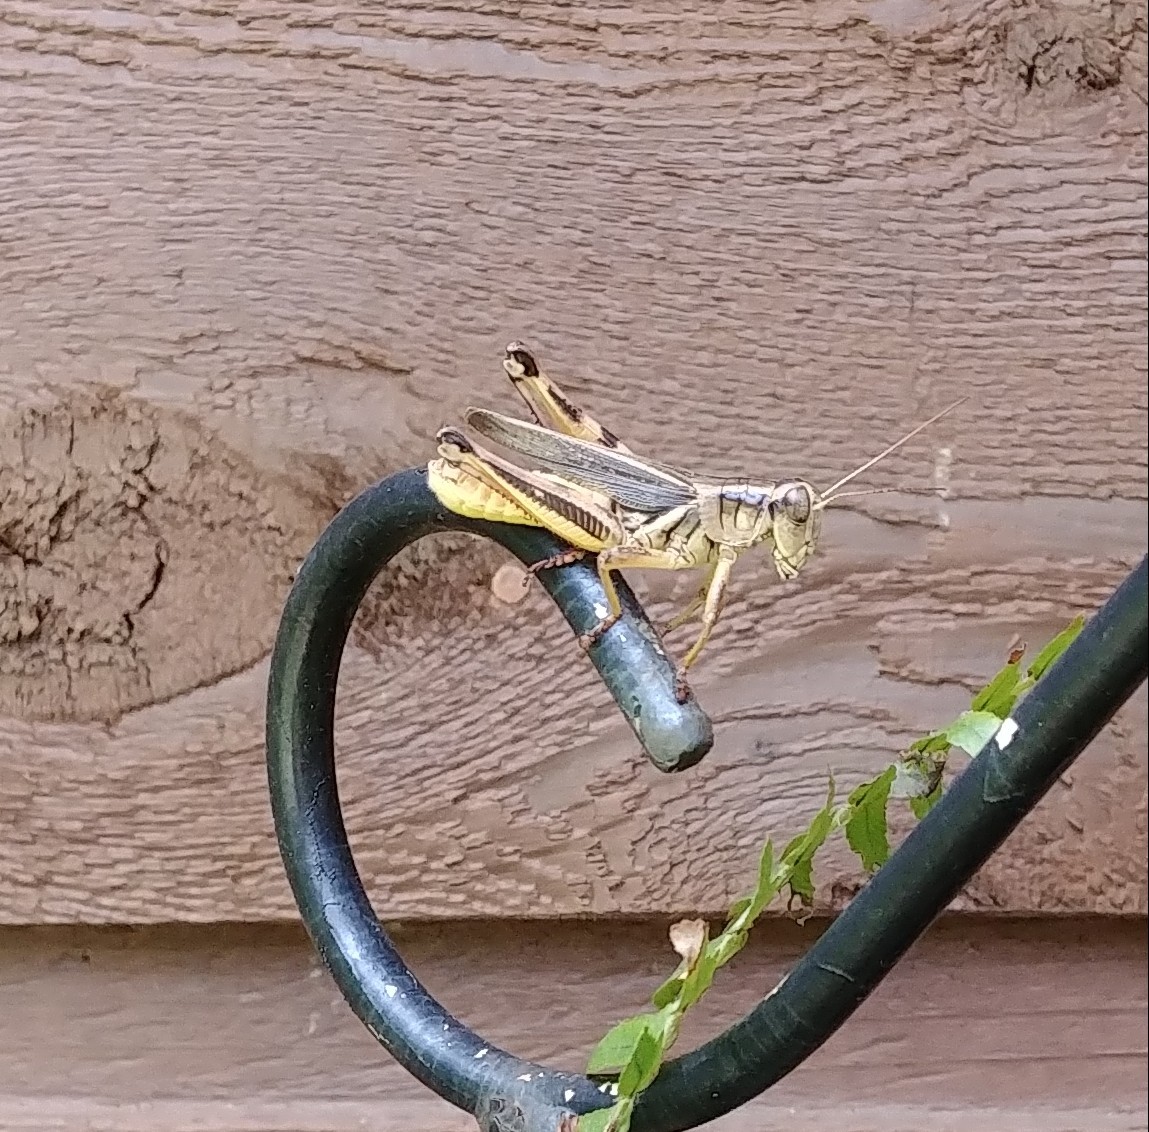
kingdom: Animalia
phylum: Arthropoda
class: Insecta
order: Orthoptera
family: Acrididae
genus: Melanoplus
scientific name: Melanoplus bivittatus
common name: Two-striped grasshopper
